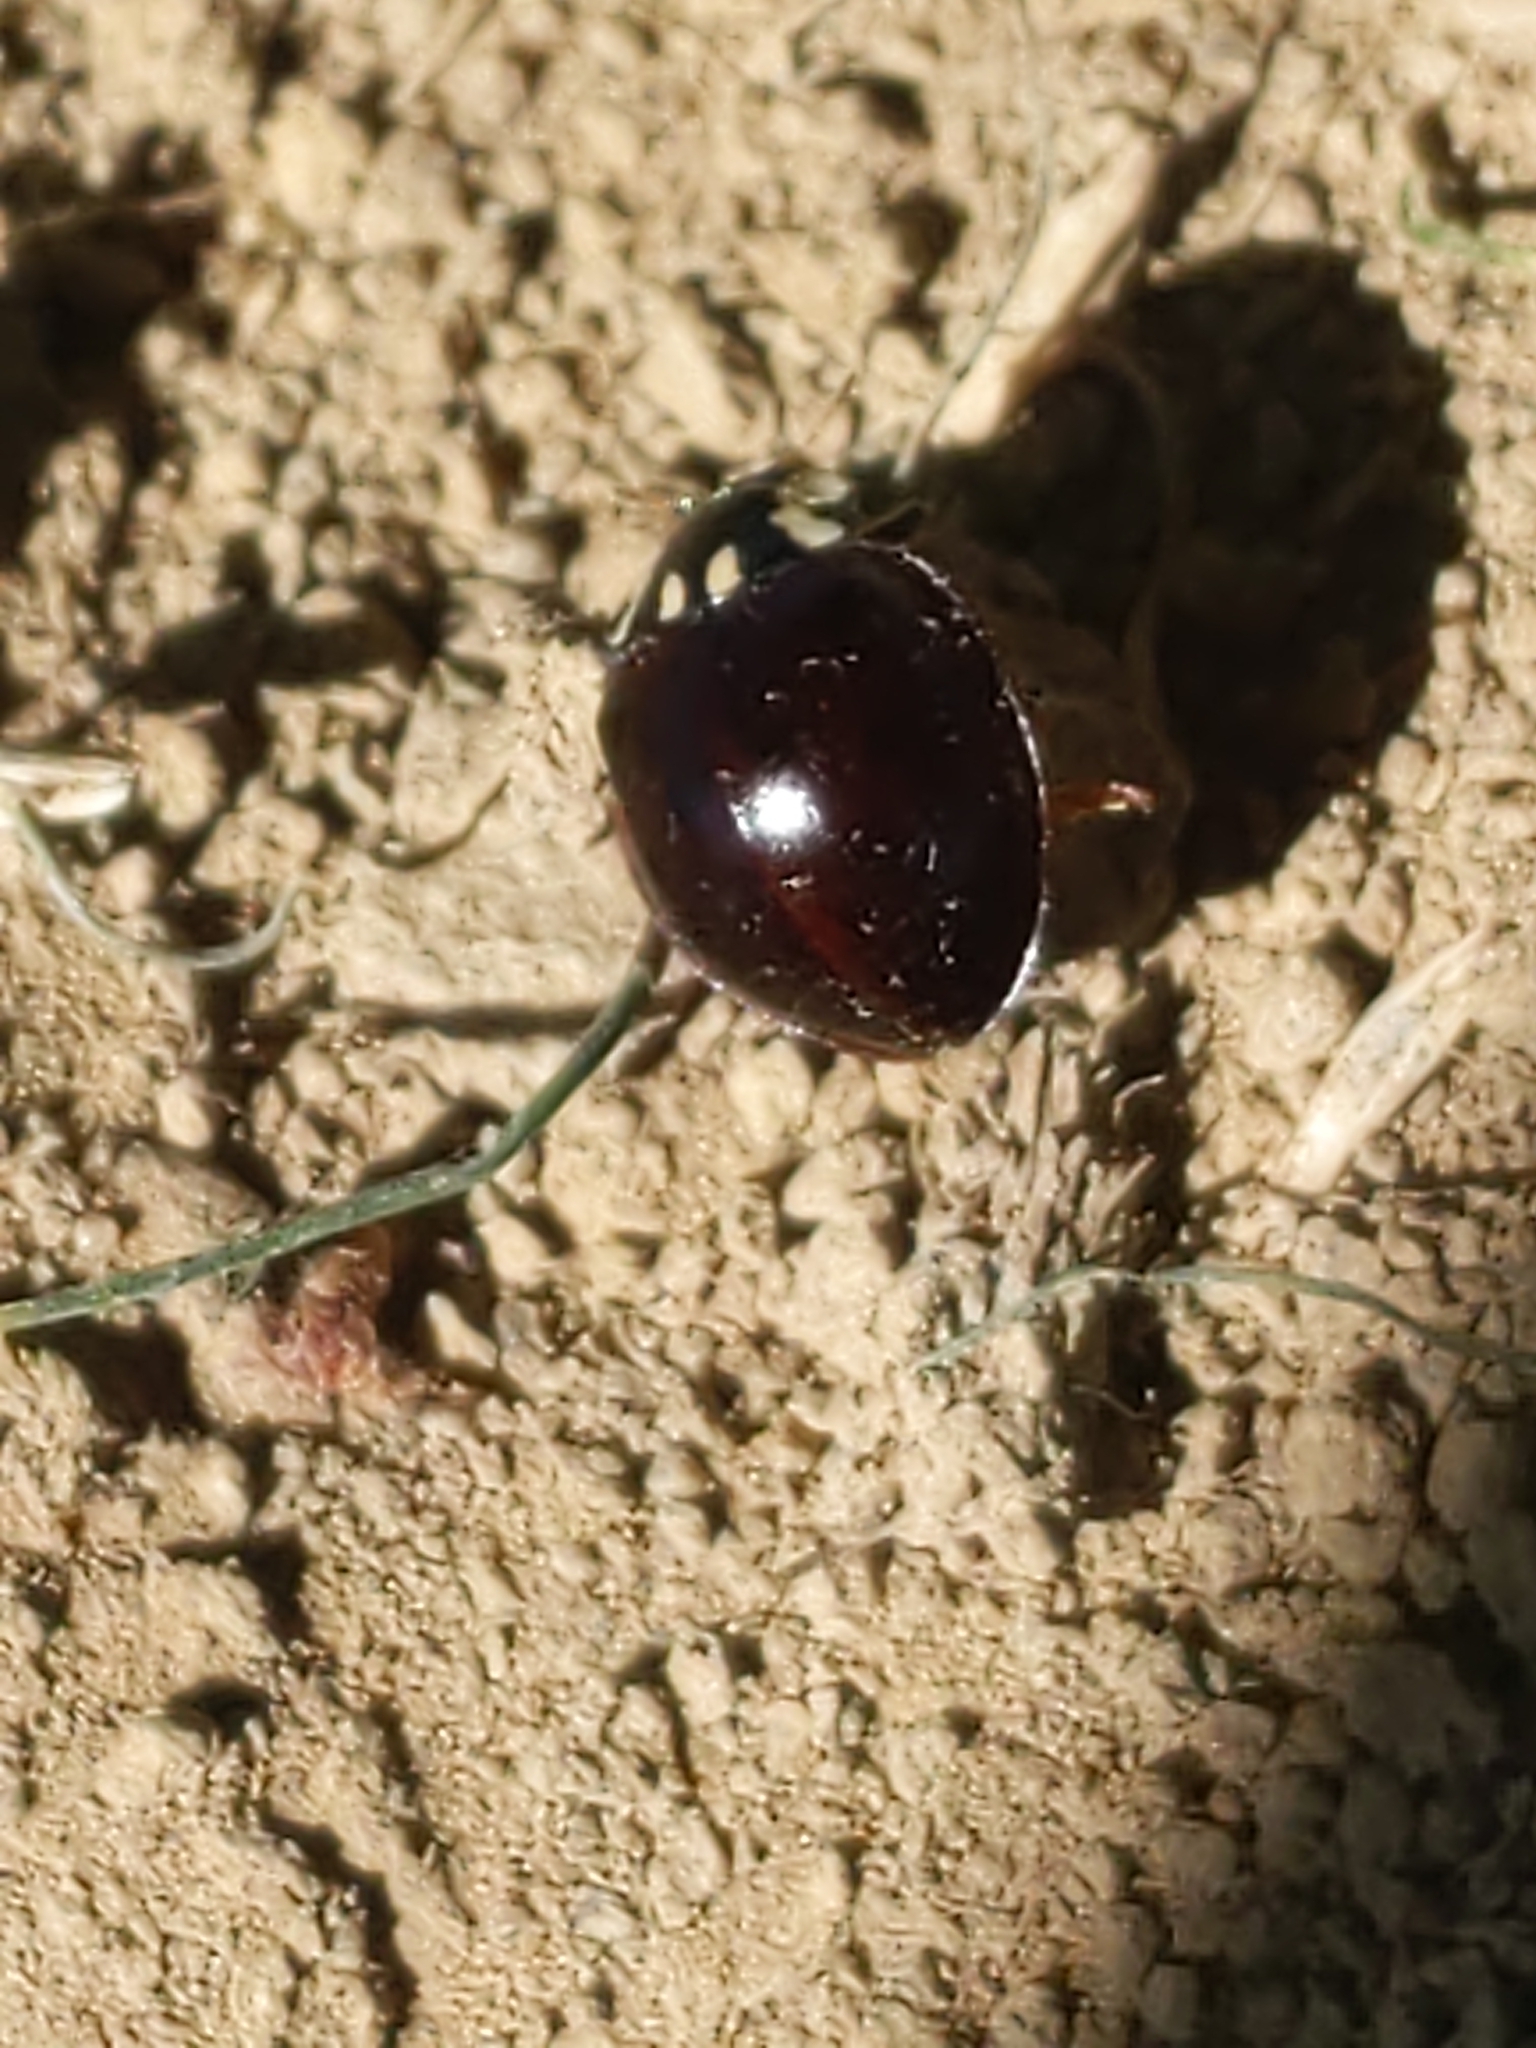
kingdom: Animalia
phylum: Arthropoda
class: Insecta
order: Coleoptera
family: Coccinellidae
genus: Anatis
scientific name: Anatis labiculata
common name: Fifteen-spotted lady beetle
